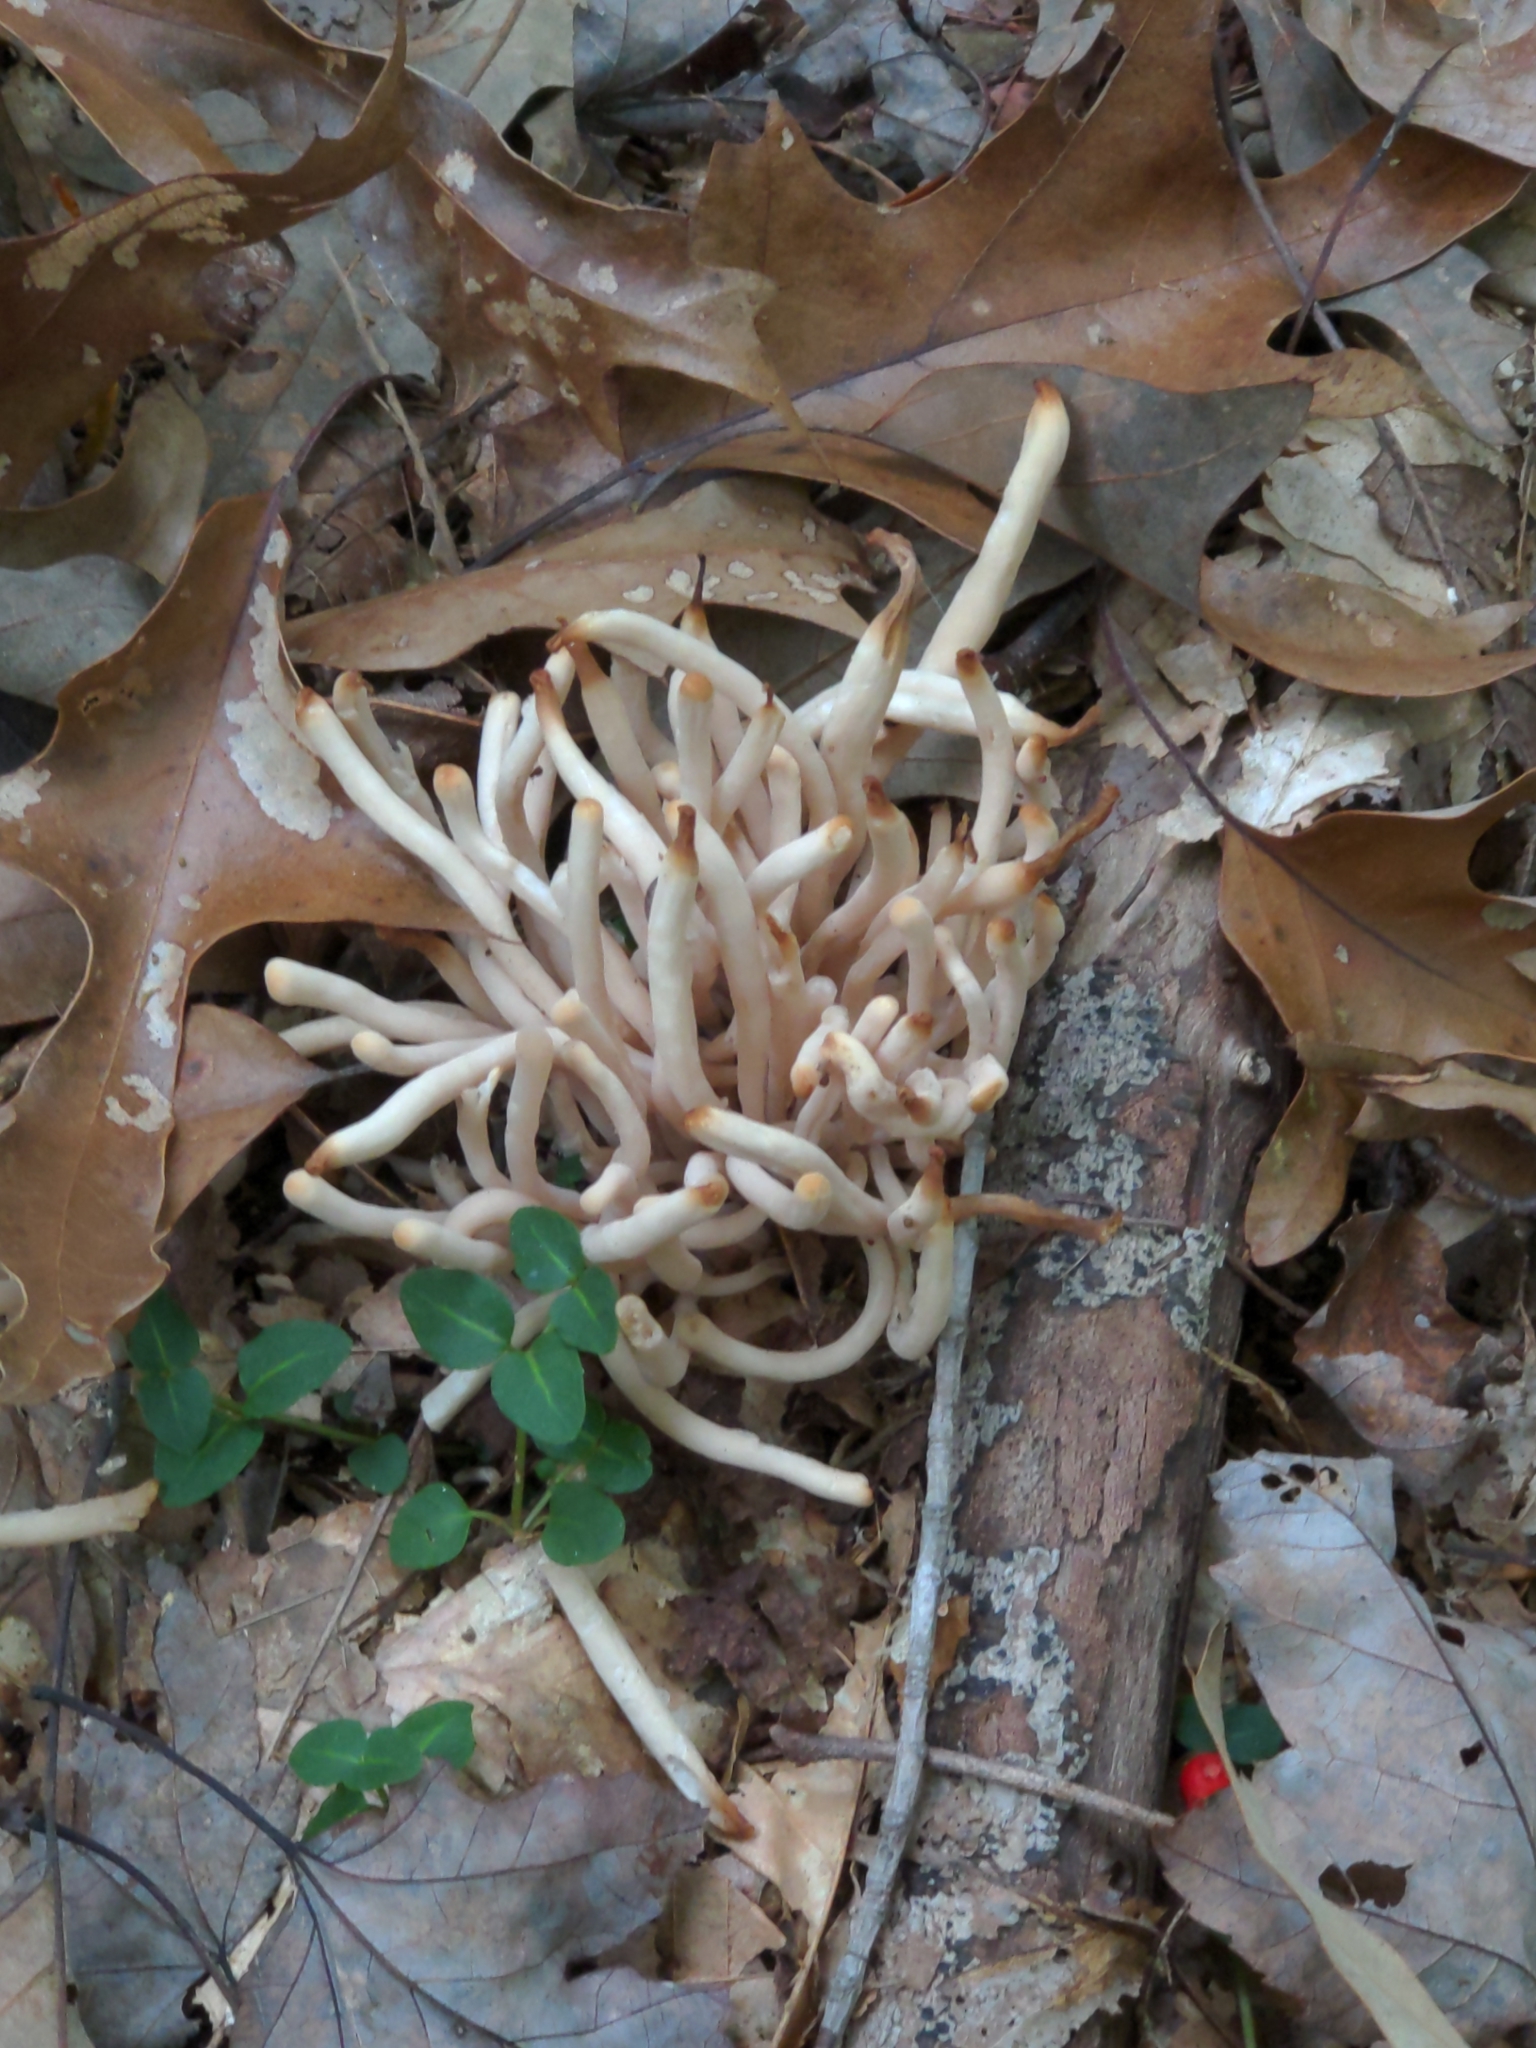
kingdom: Fungi
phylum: Basidiomycota
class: Agaricomycetes
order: Agaricales
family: Clavariaceae
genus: Clavaria
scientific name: Clavaria fumosa
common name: Smoky spindles
